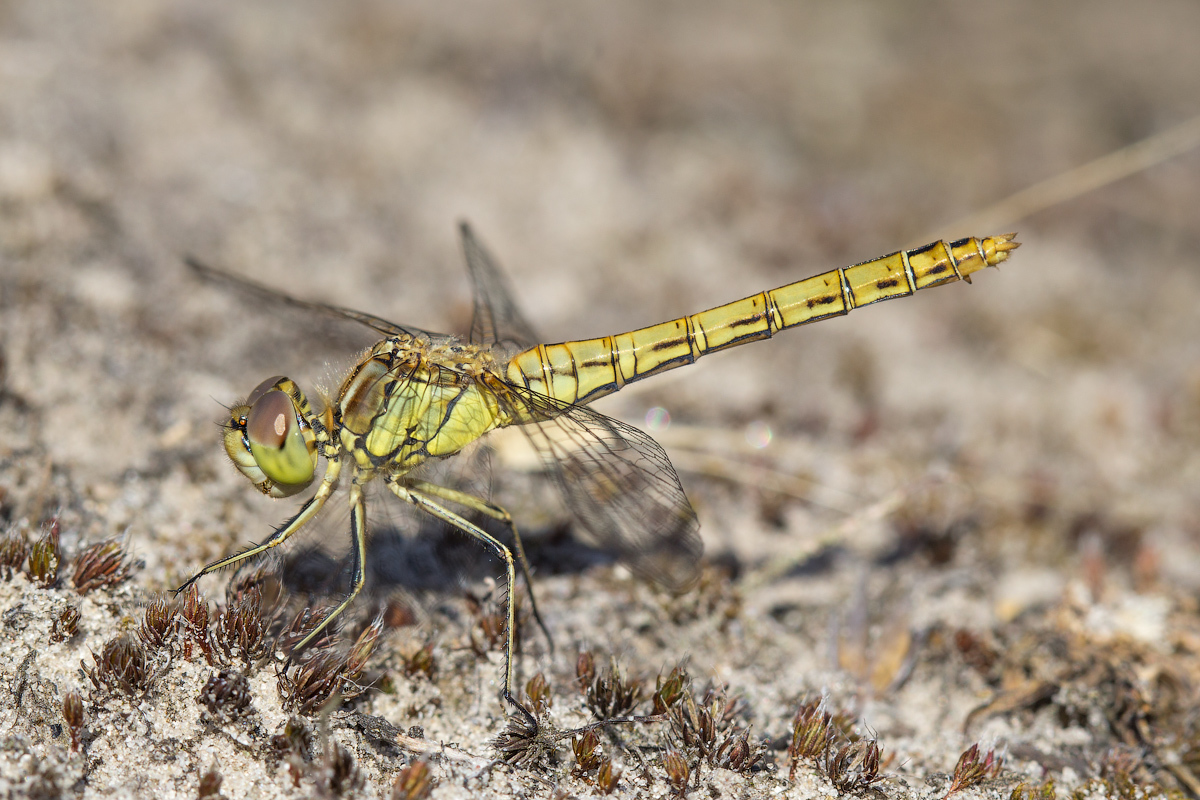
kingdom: Animalia
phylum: Arthropoda
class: Insecta
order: Odonata
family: Libellulidae
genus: Sympetrum
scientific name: Sympetrum vulgatum
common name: Vagrant darter
